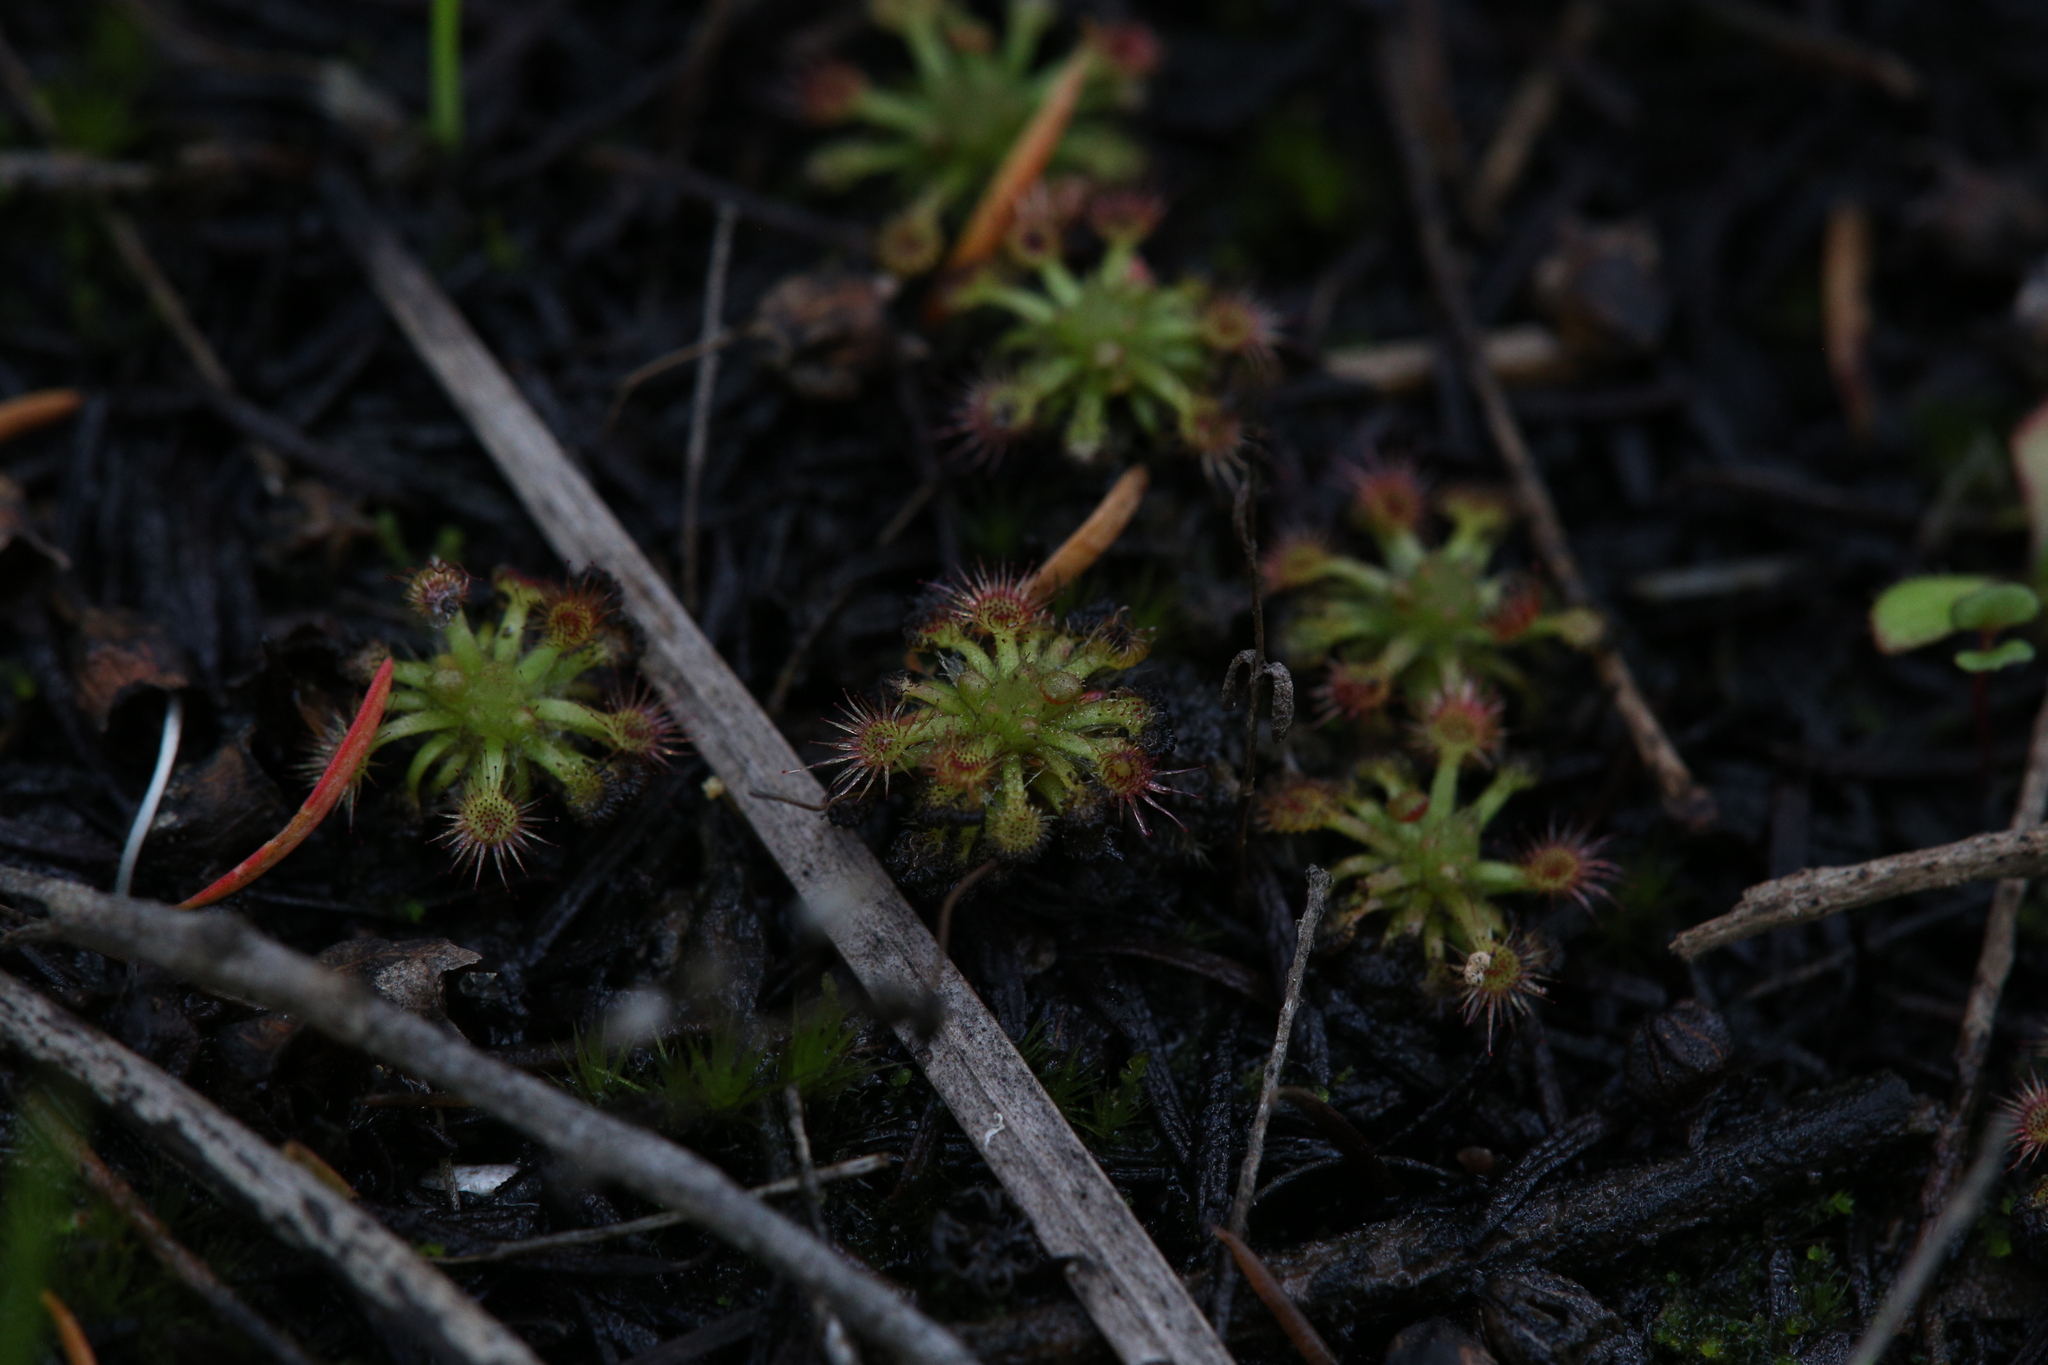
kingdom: Plantae
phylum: Tracheophyta
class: Magnoliopsida
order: Caryophyllales
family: Droseraceae
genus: Drosera
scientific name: Drosera nitidula
